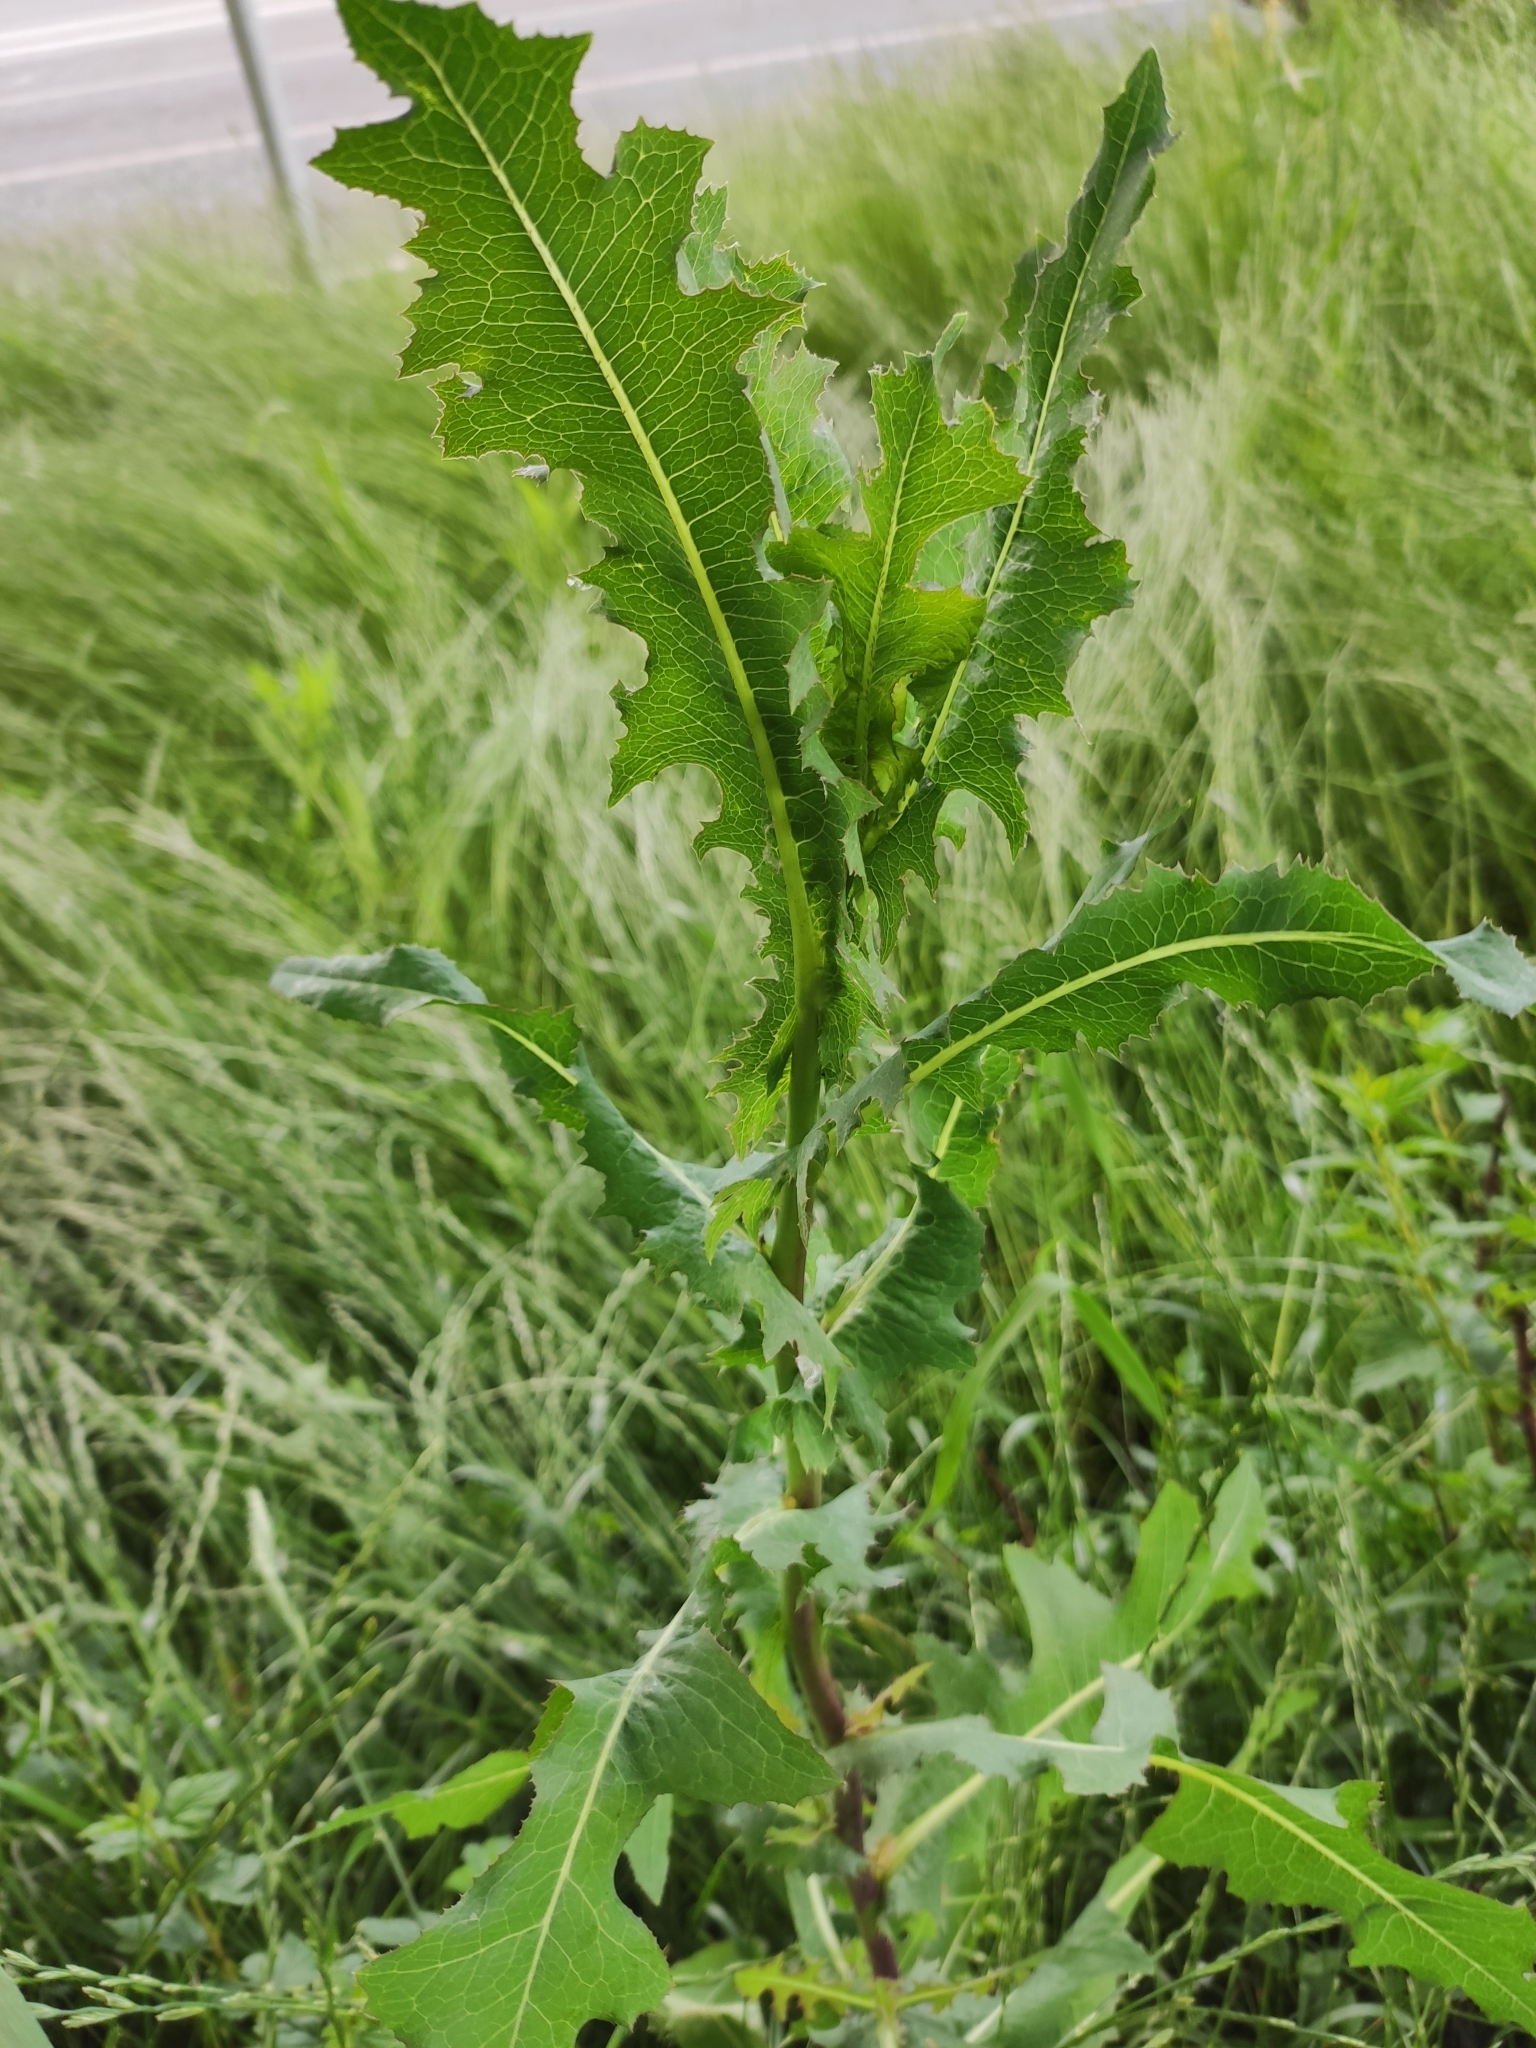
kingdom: Plantae
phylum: Tracheophyta
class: Magnoliopsida
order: Asterales
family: Asteraceae
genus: Lactuca
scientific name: Lactuca serriola
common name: Prickly lettuce
